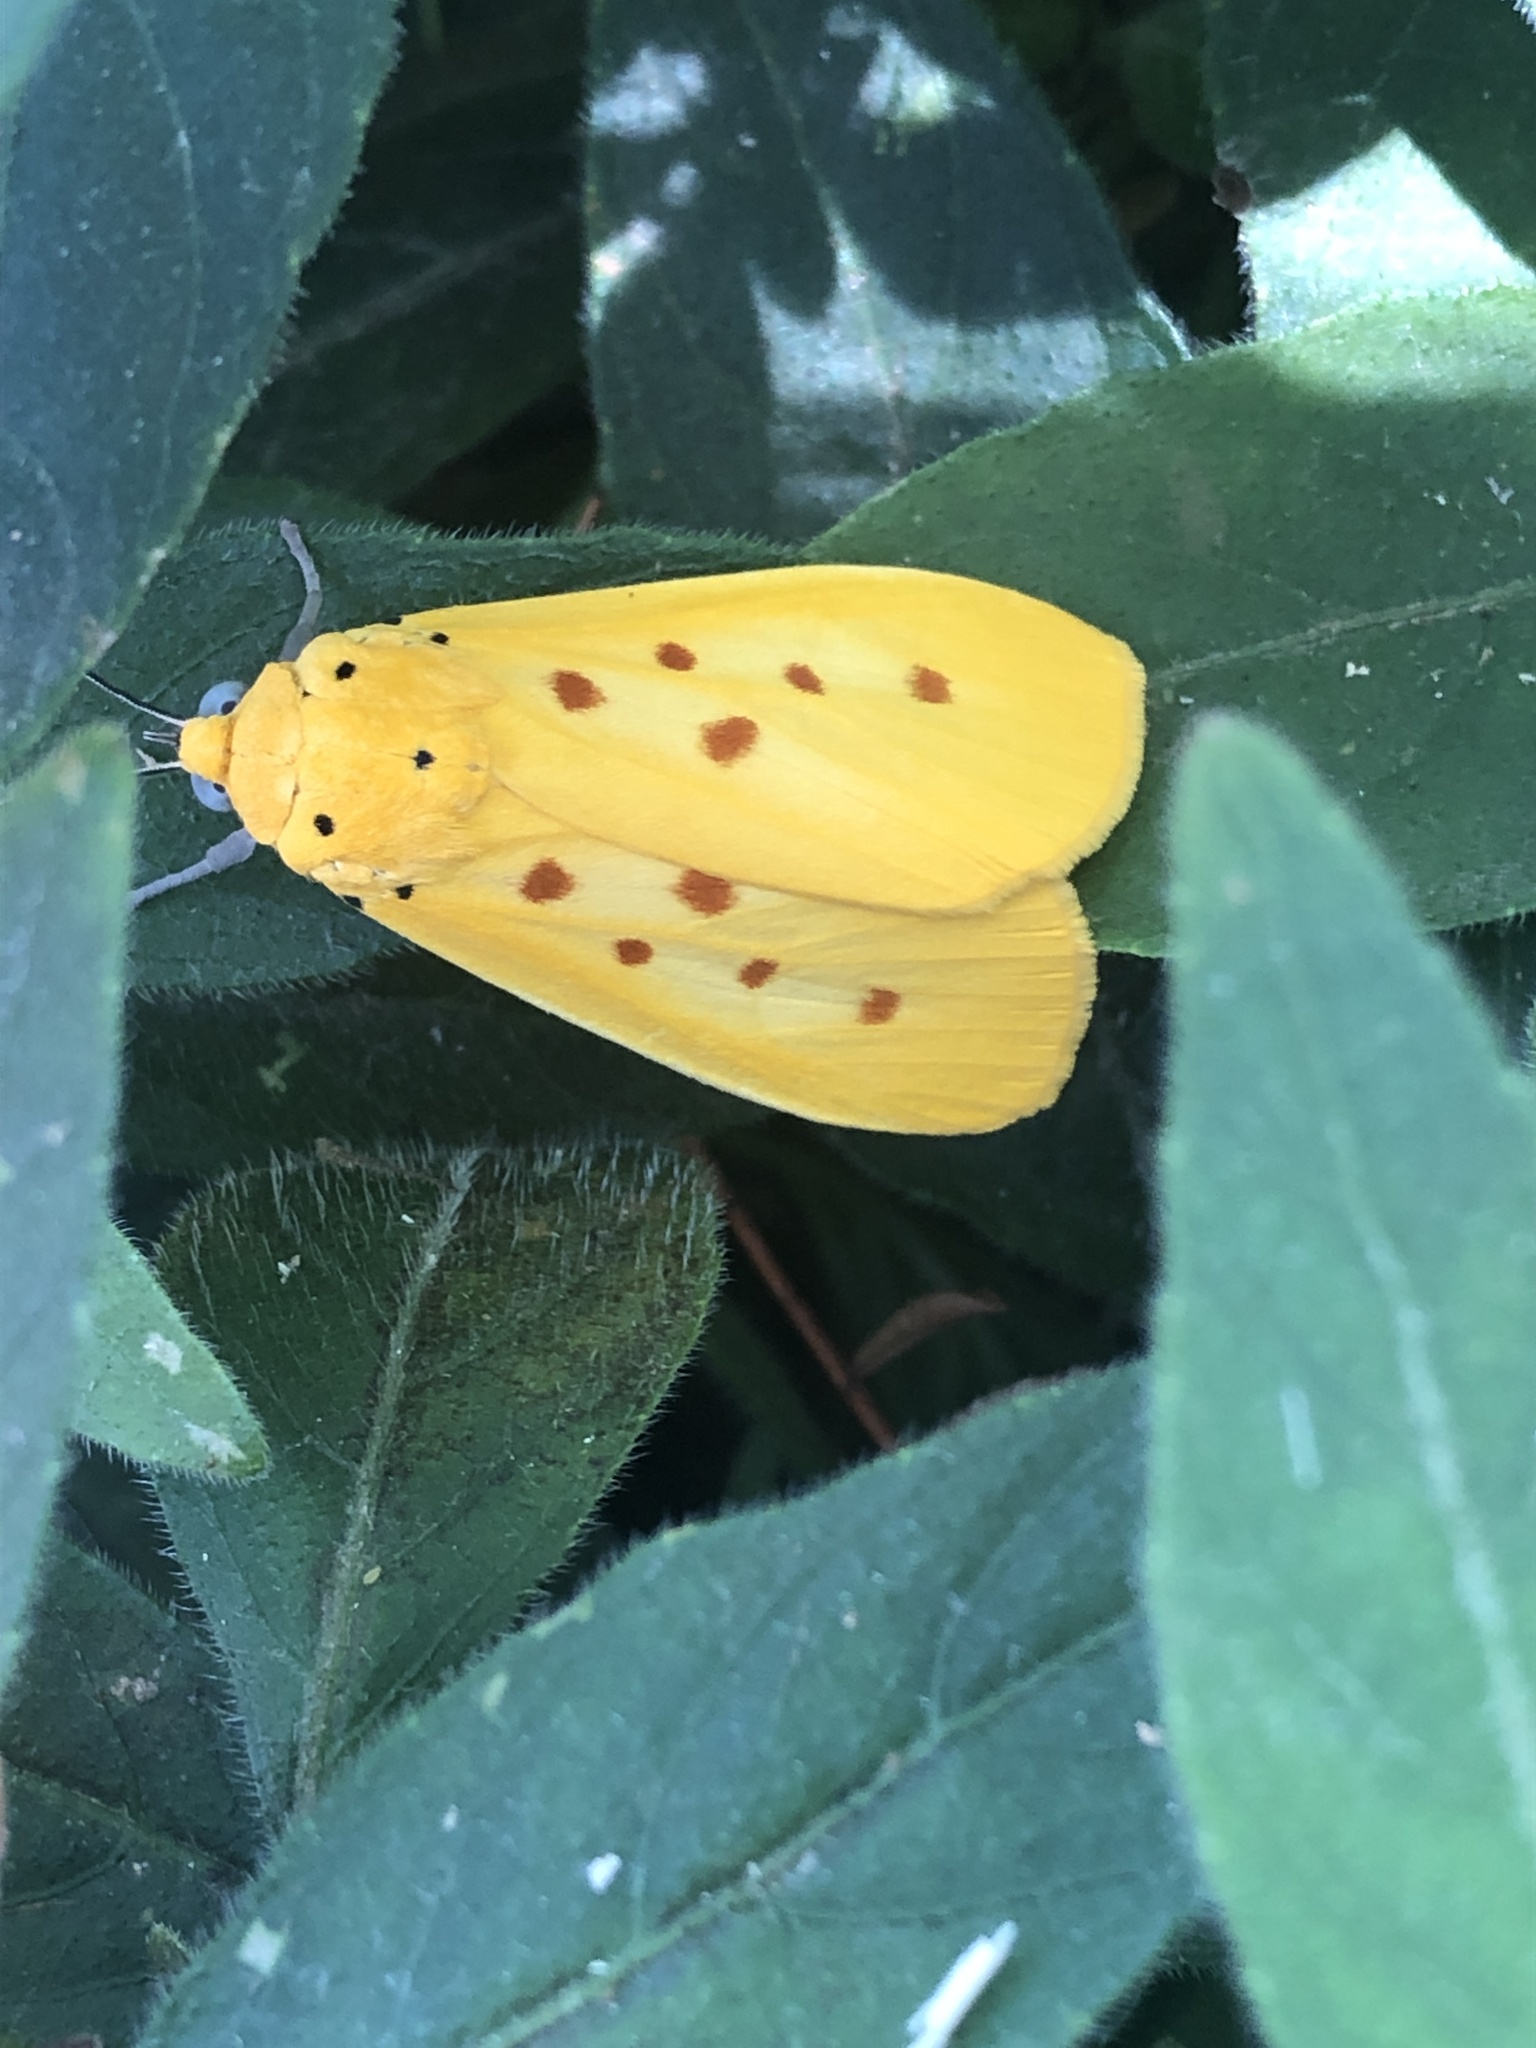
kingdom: Animalia
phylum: Arthropoda
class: Insecta
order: Lepidoptera
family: Noctuidae
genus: Agape
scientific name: Agape chloropyga
